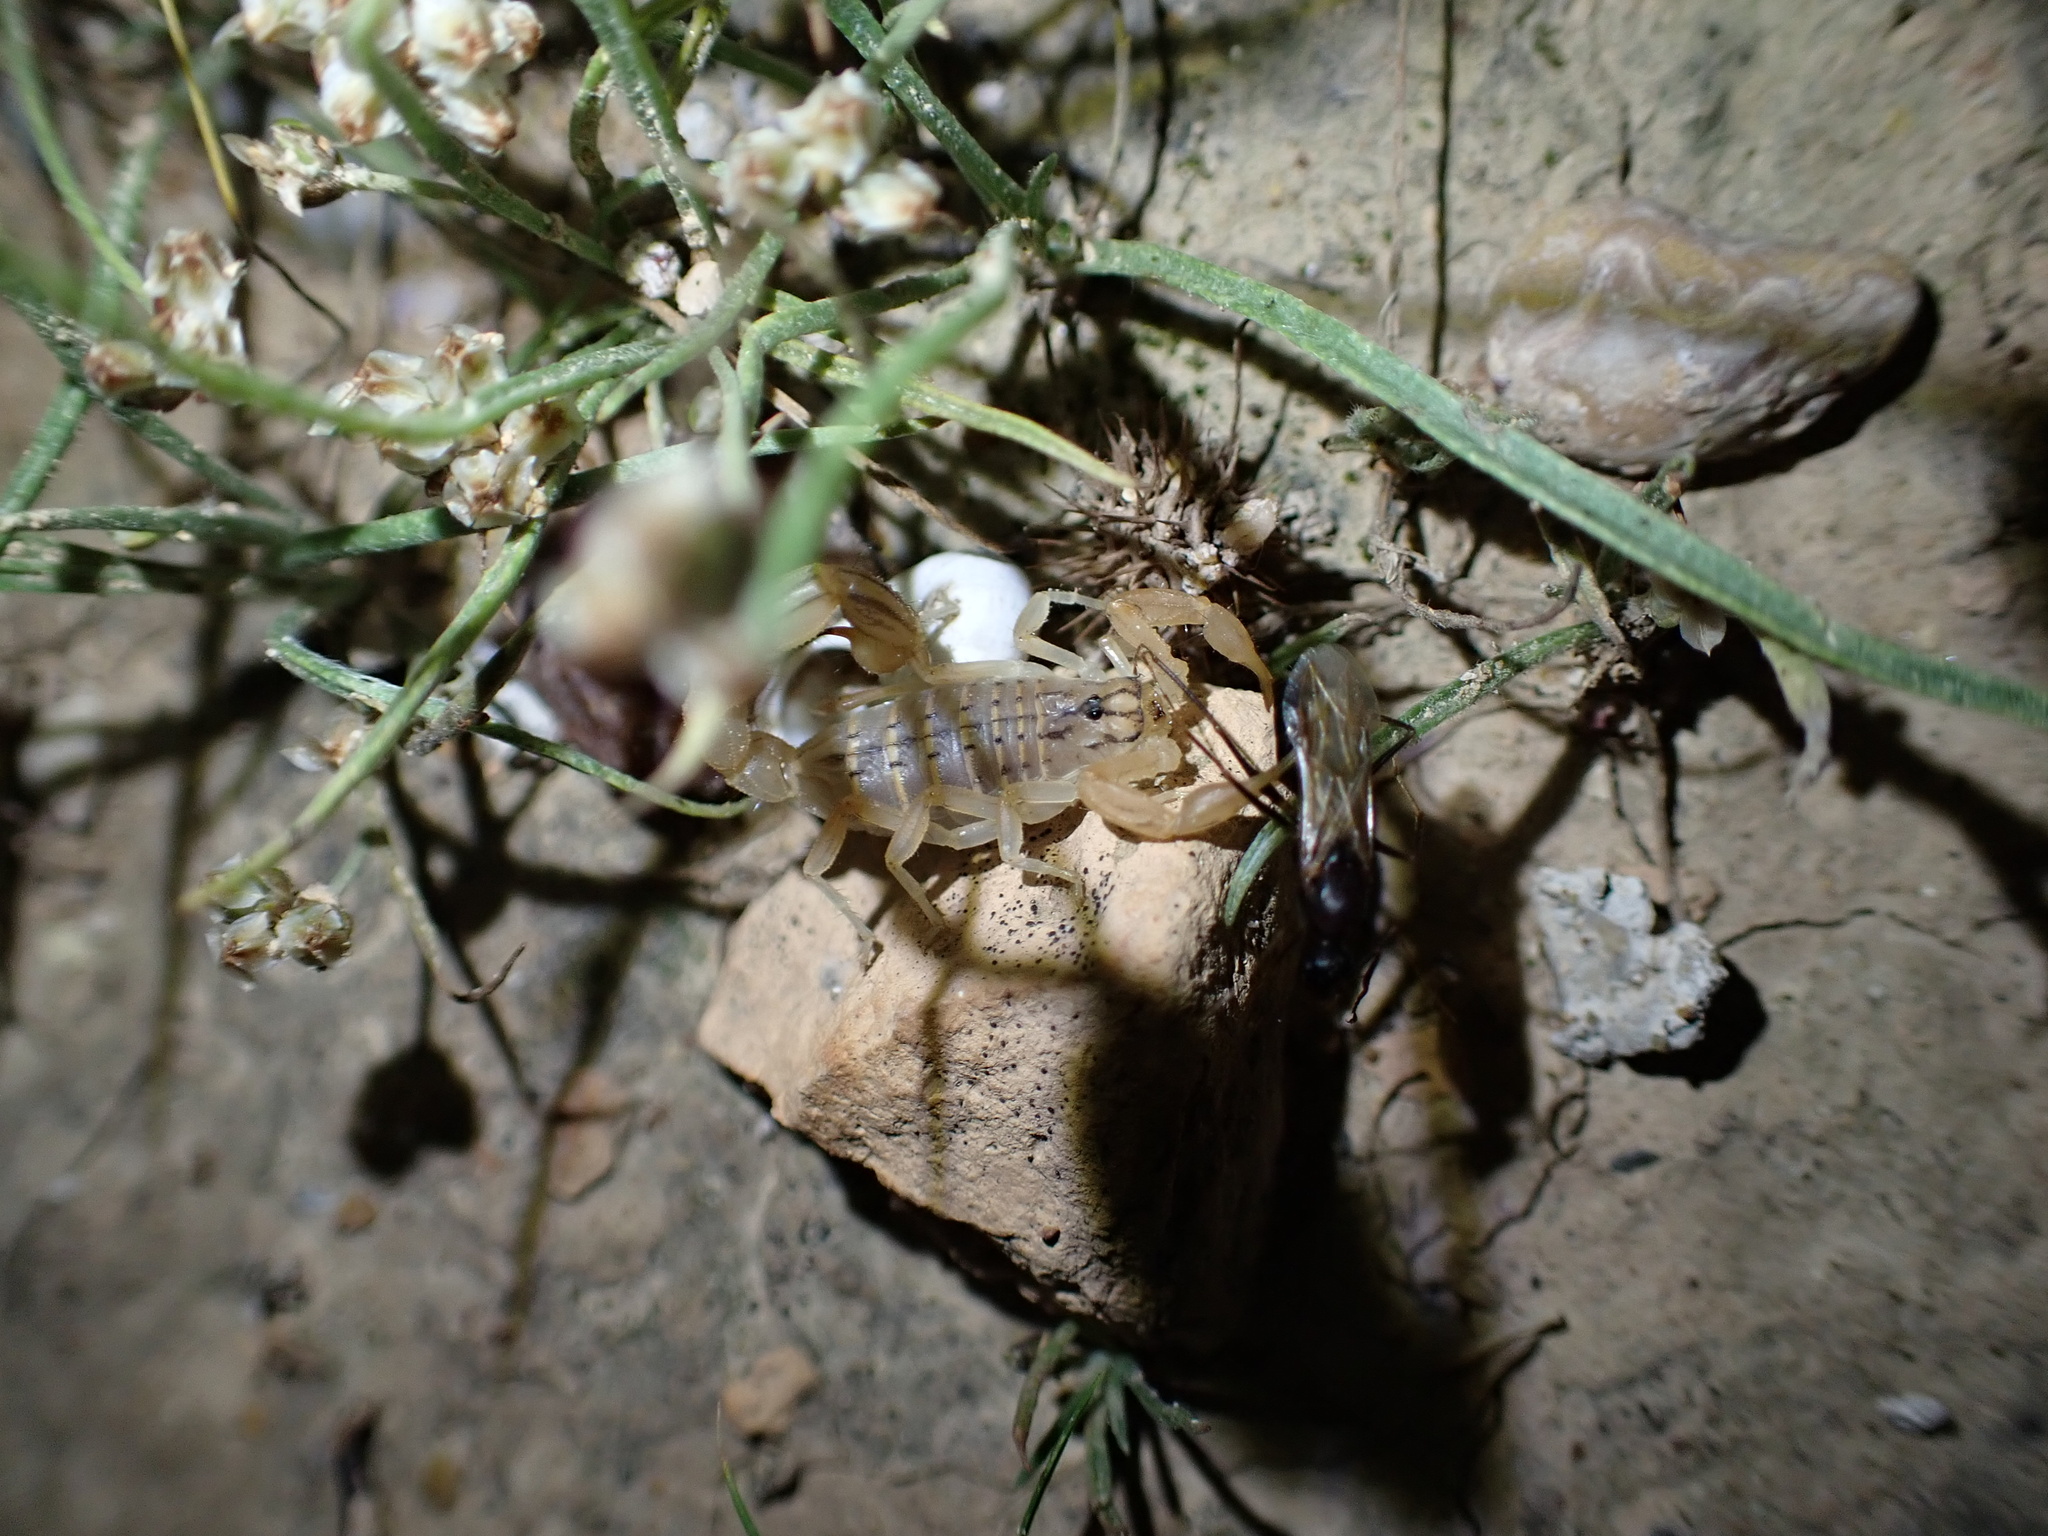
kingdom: Animalia
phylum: Arthropoda
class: Arachnida
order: Scorpiones
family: Buthidae
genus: Mesobuthus
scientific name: Mesobuthus crucittii
